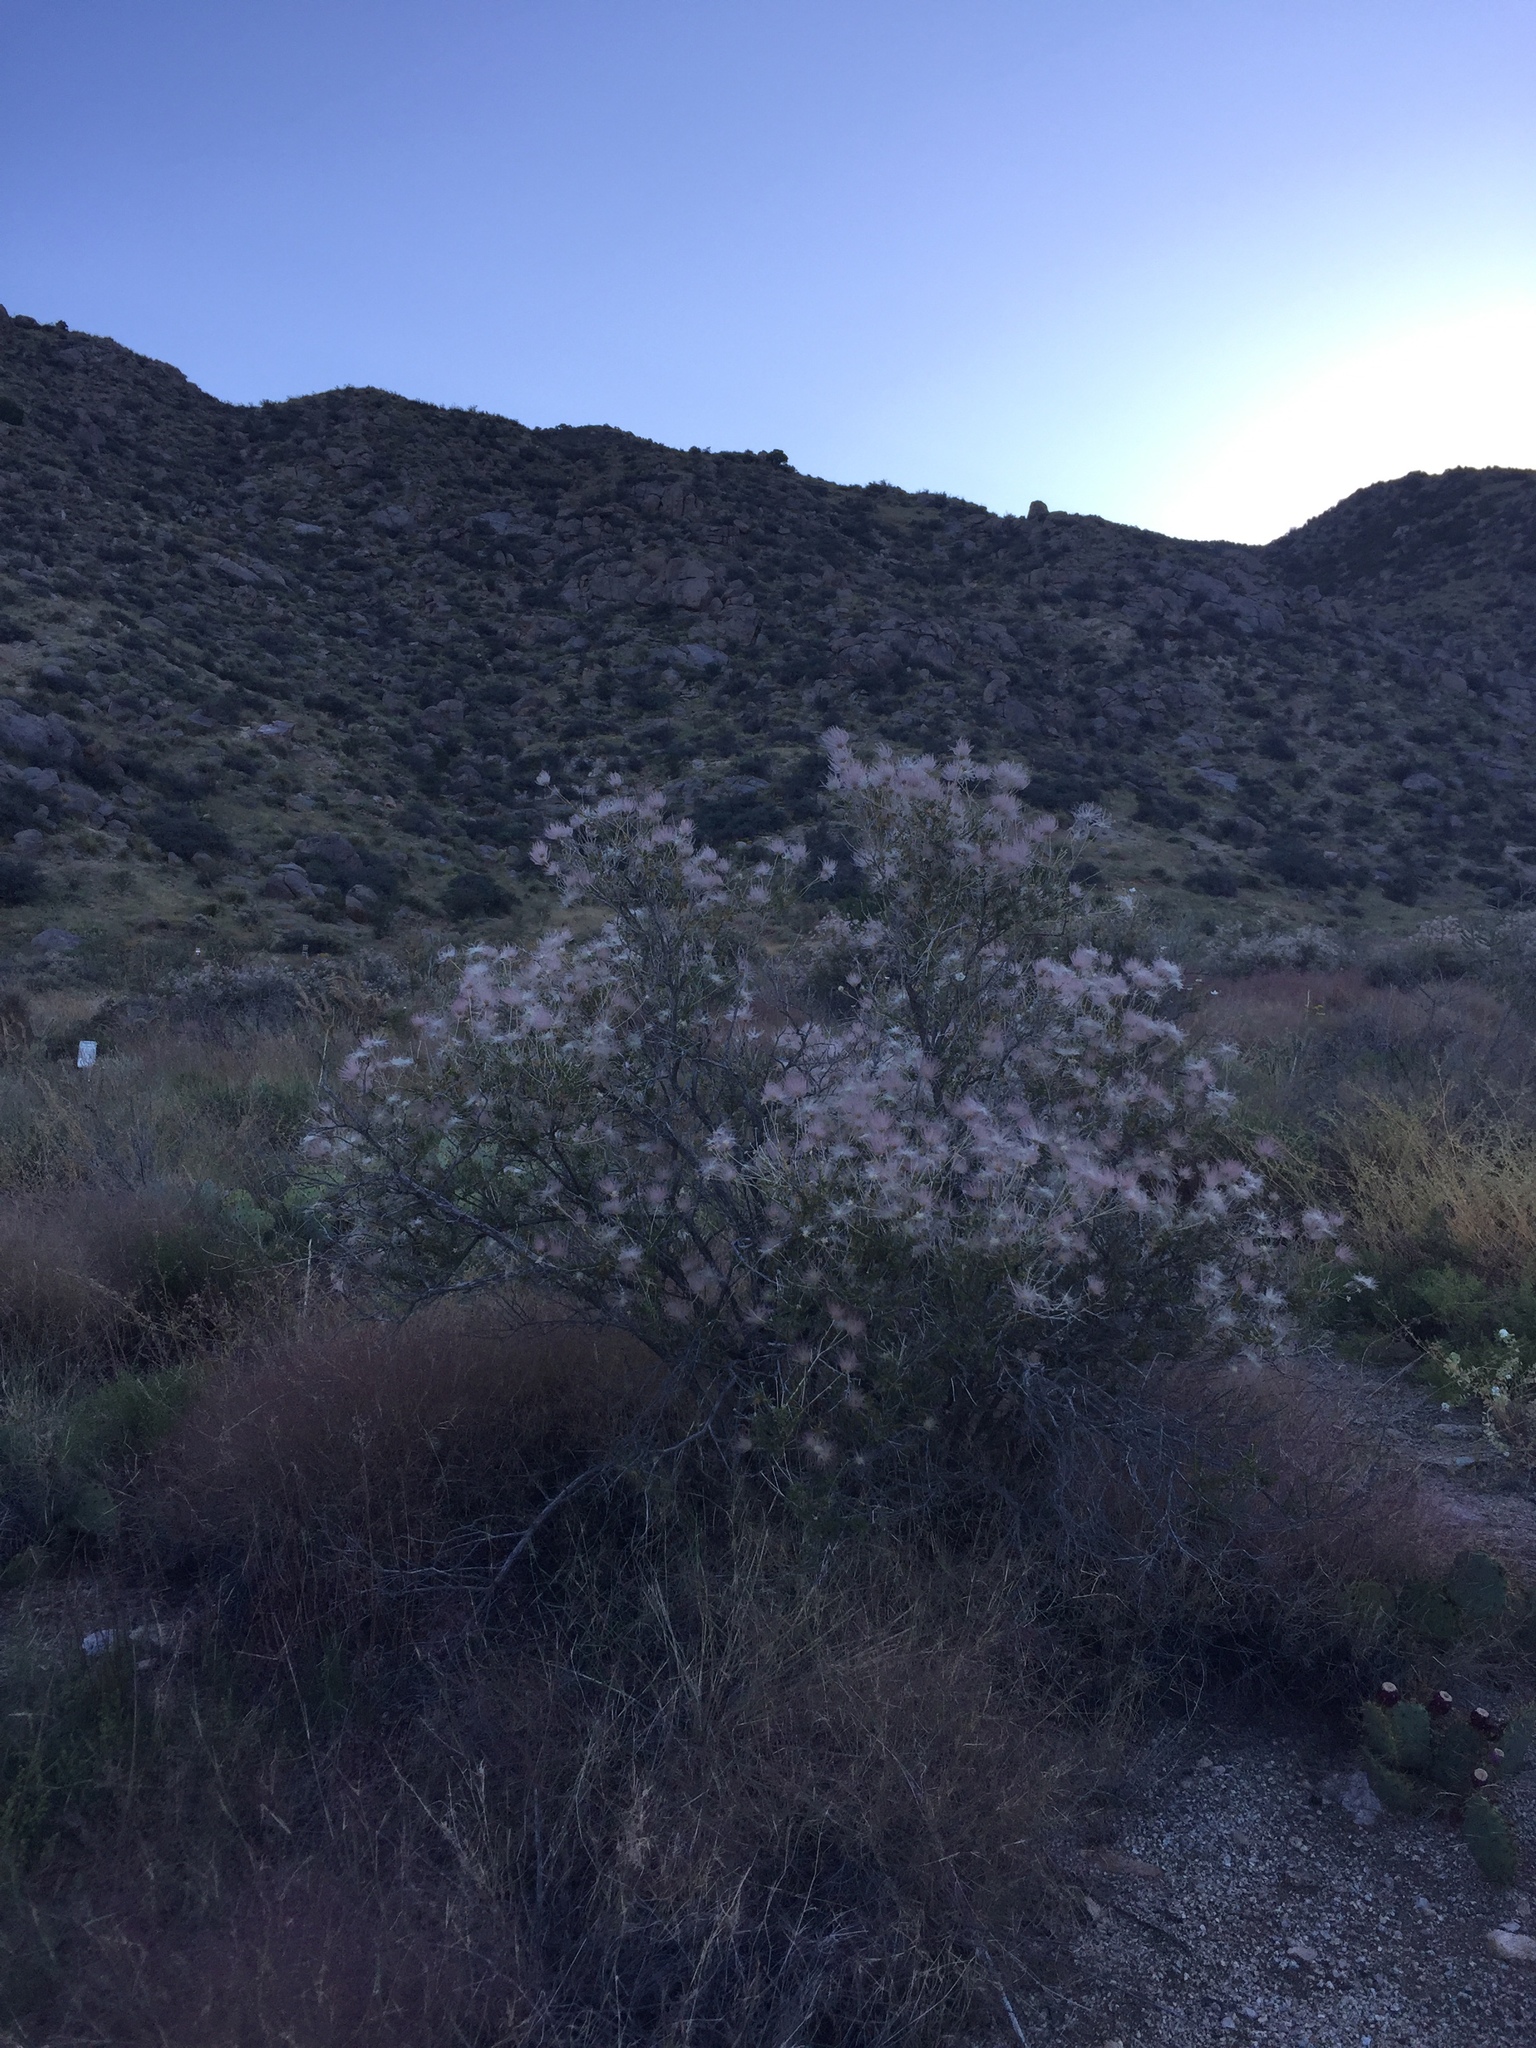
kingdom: Plantae
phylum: Tracheophyta
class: Magnoliopsida
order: Rosales
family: Rosaceae
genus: Fallugia
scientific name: Fallugia paradoxa
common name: Apache-plume
